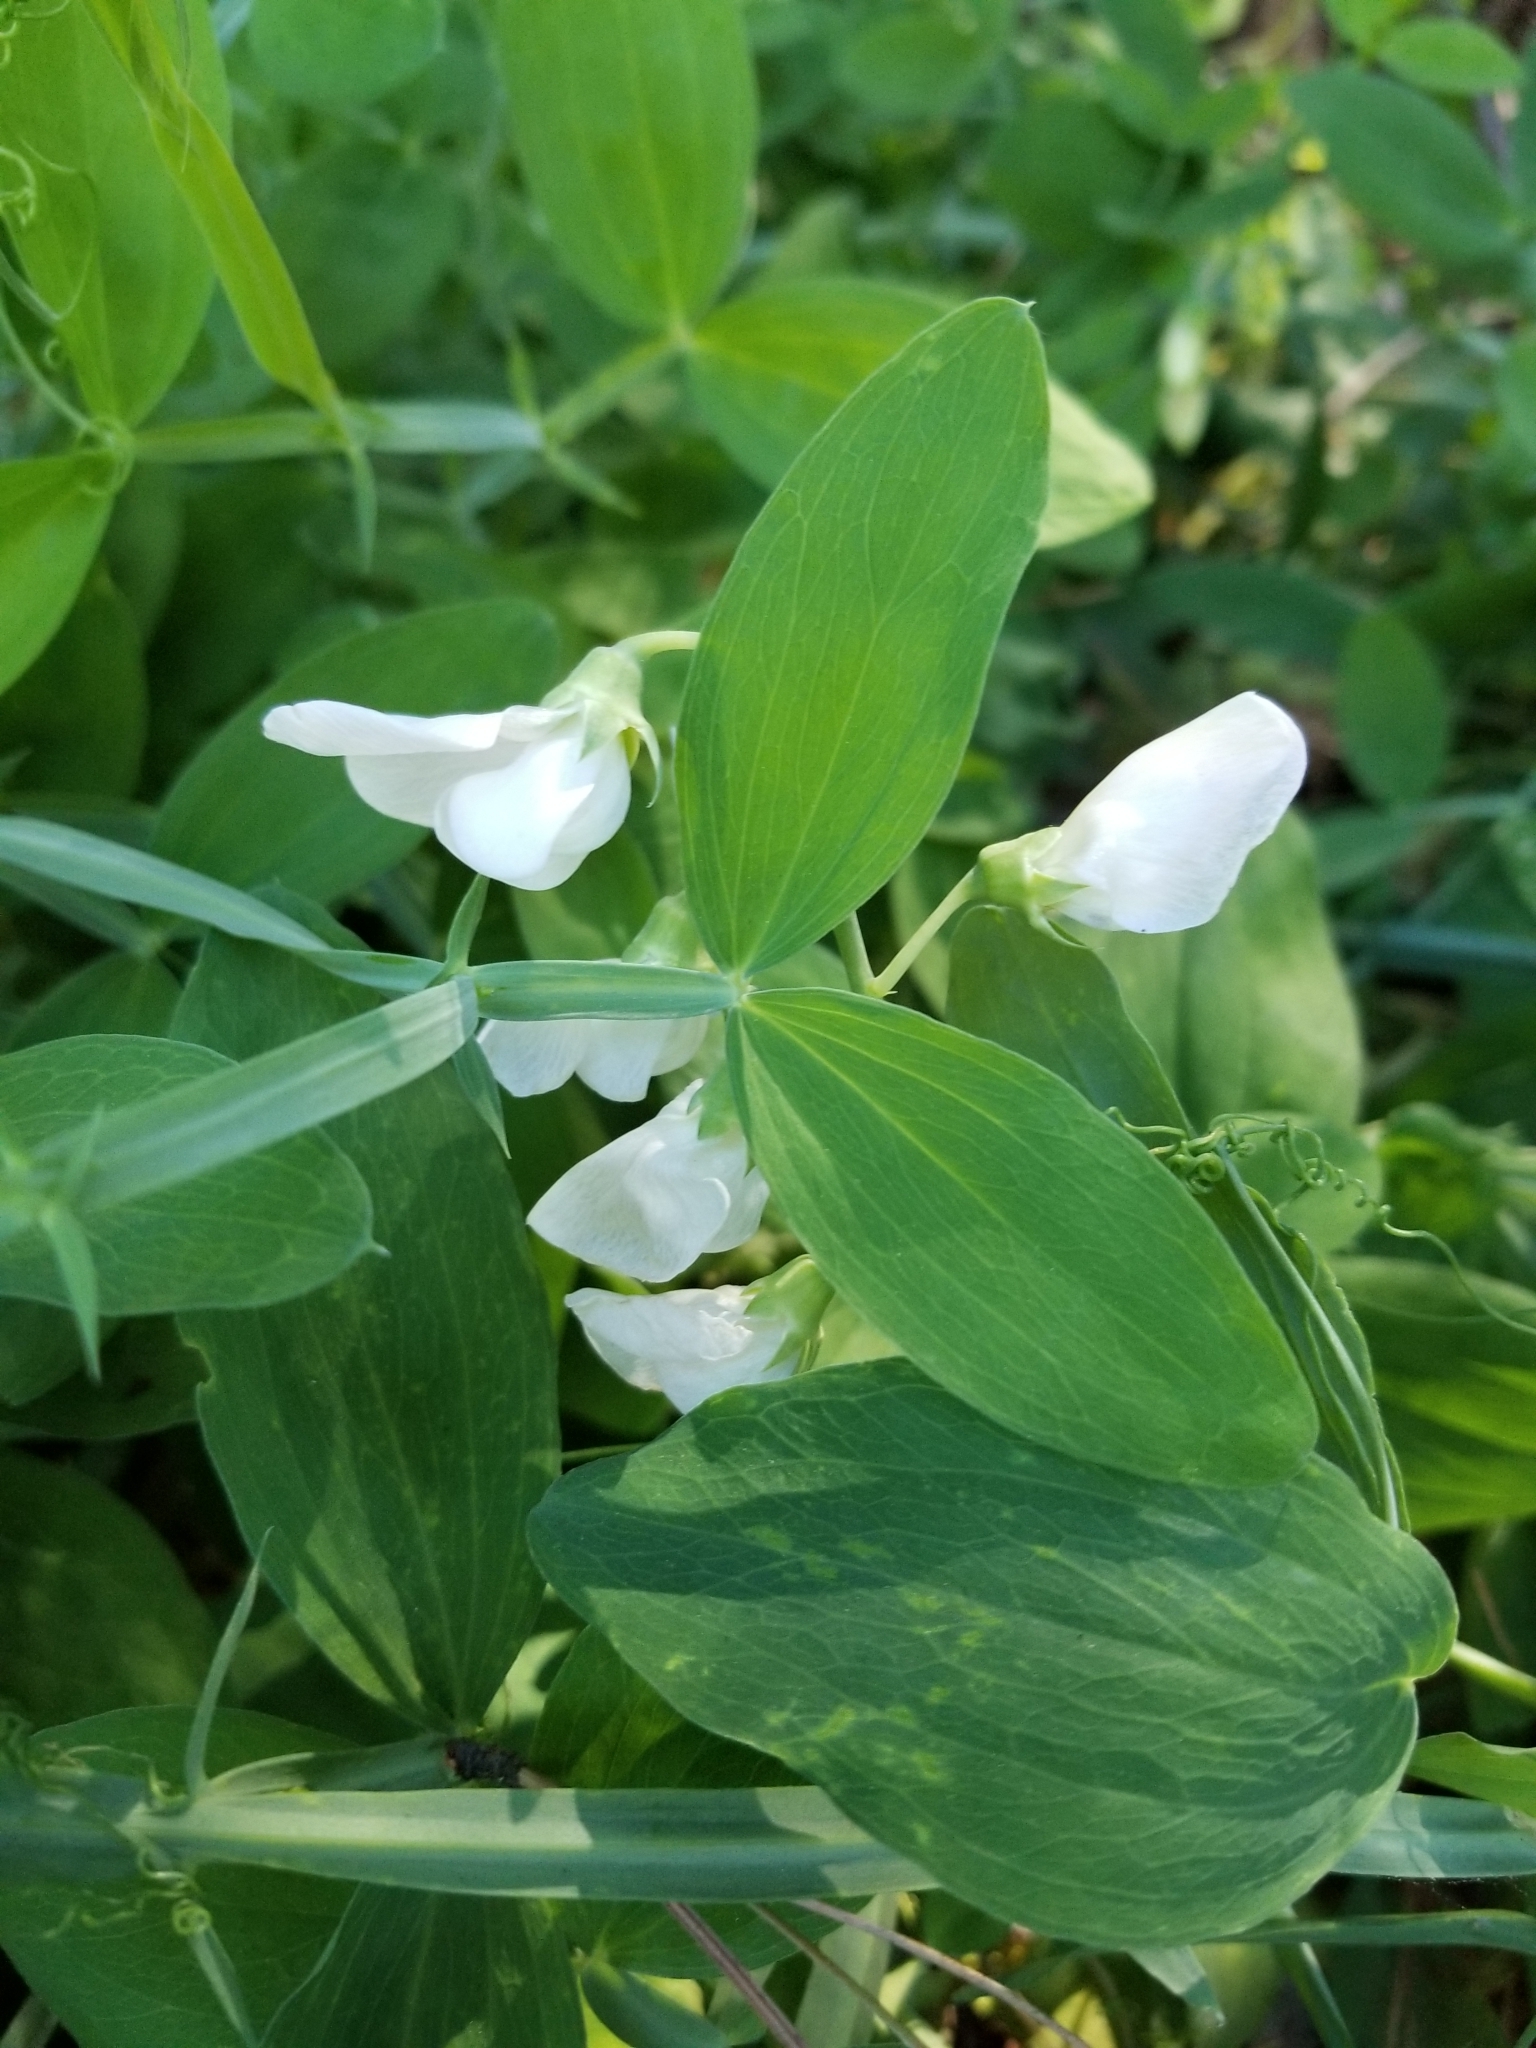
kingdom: Plantae
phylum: Tracheophyta
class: Magnoliopsida
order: Fabales
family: Fabaceae
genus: Lathyrus
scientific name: Lathyrus latifolius
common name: Perennial pea
